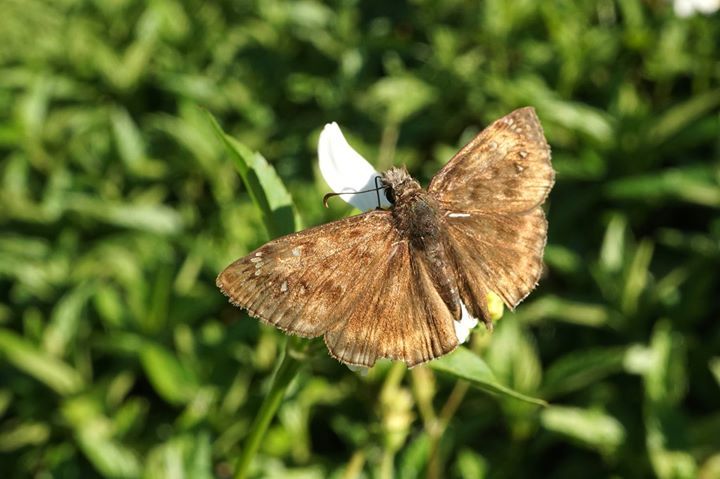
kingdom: Animalia
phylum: Arthropoda
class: Insecta
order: Lepidoptera
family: Hesperiidae
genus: Erynnis
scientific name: Erynnis horatius
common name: Horace's duskywing
